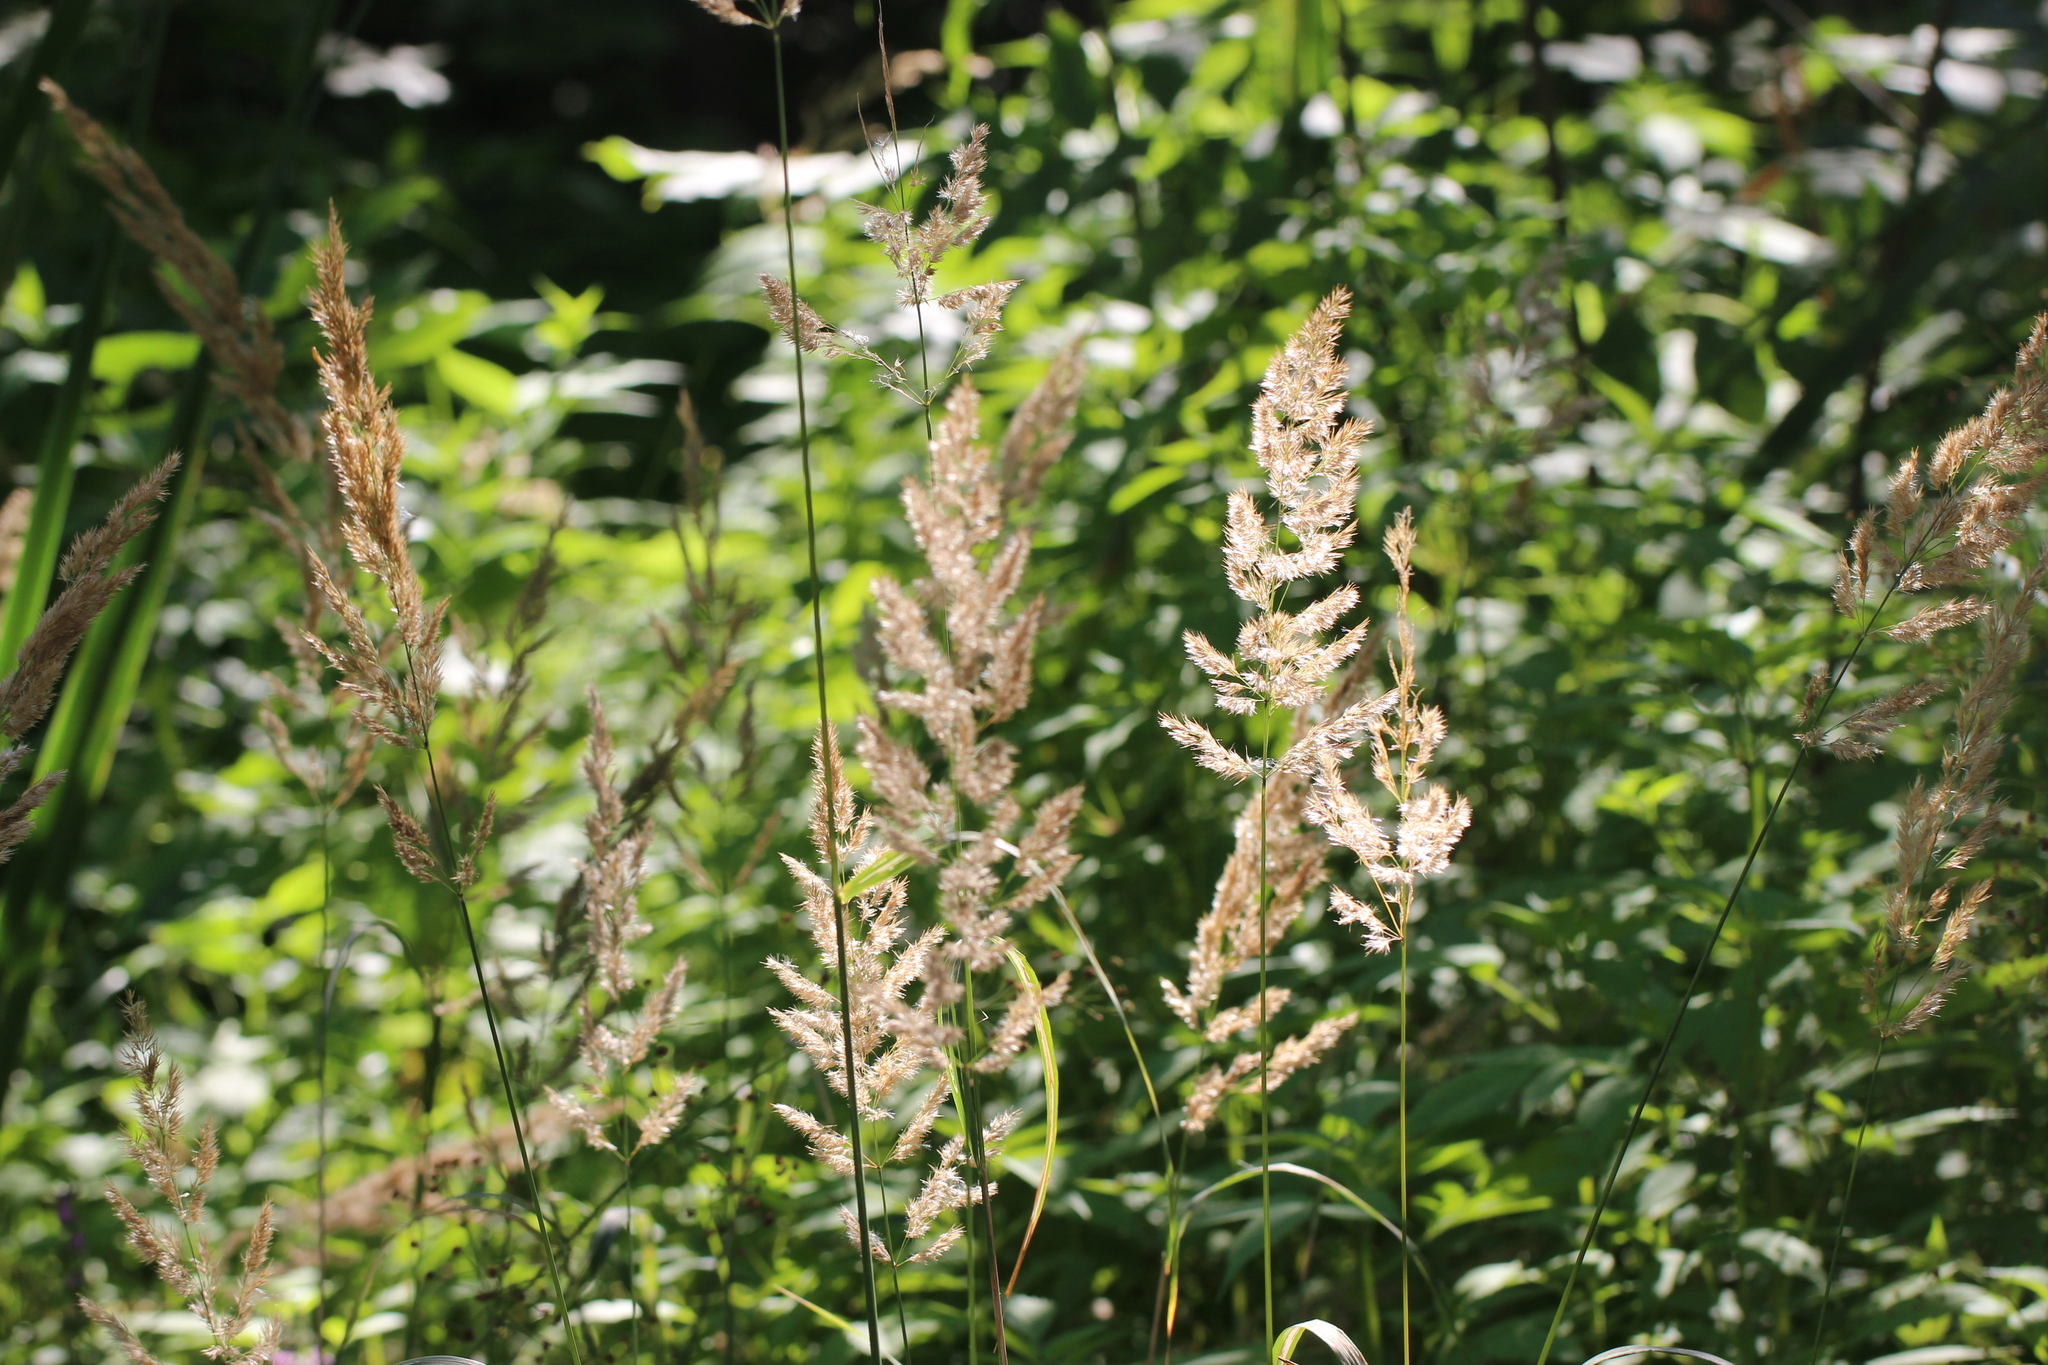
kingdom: Plantae
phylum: Tracheophyta
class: Liliopsida
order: Poales
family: Poaceae
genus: Calamagrostis
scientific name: Calamagrostis epigejos
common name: Wood small-reed
